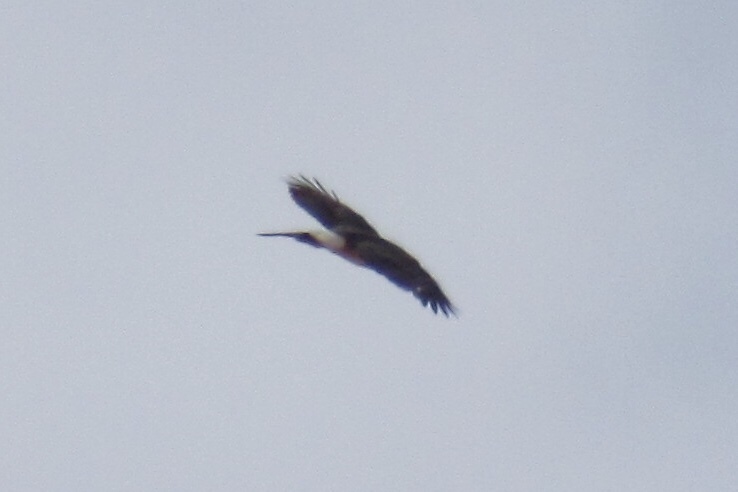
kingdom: Animalia
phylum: Chordata
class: Aves
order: Accipitriformes
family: Accipitridae
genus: Circus
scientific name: Circus cyaneus
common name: Hen harrier
